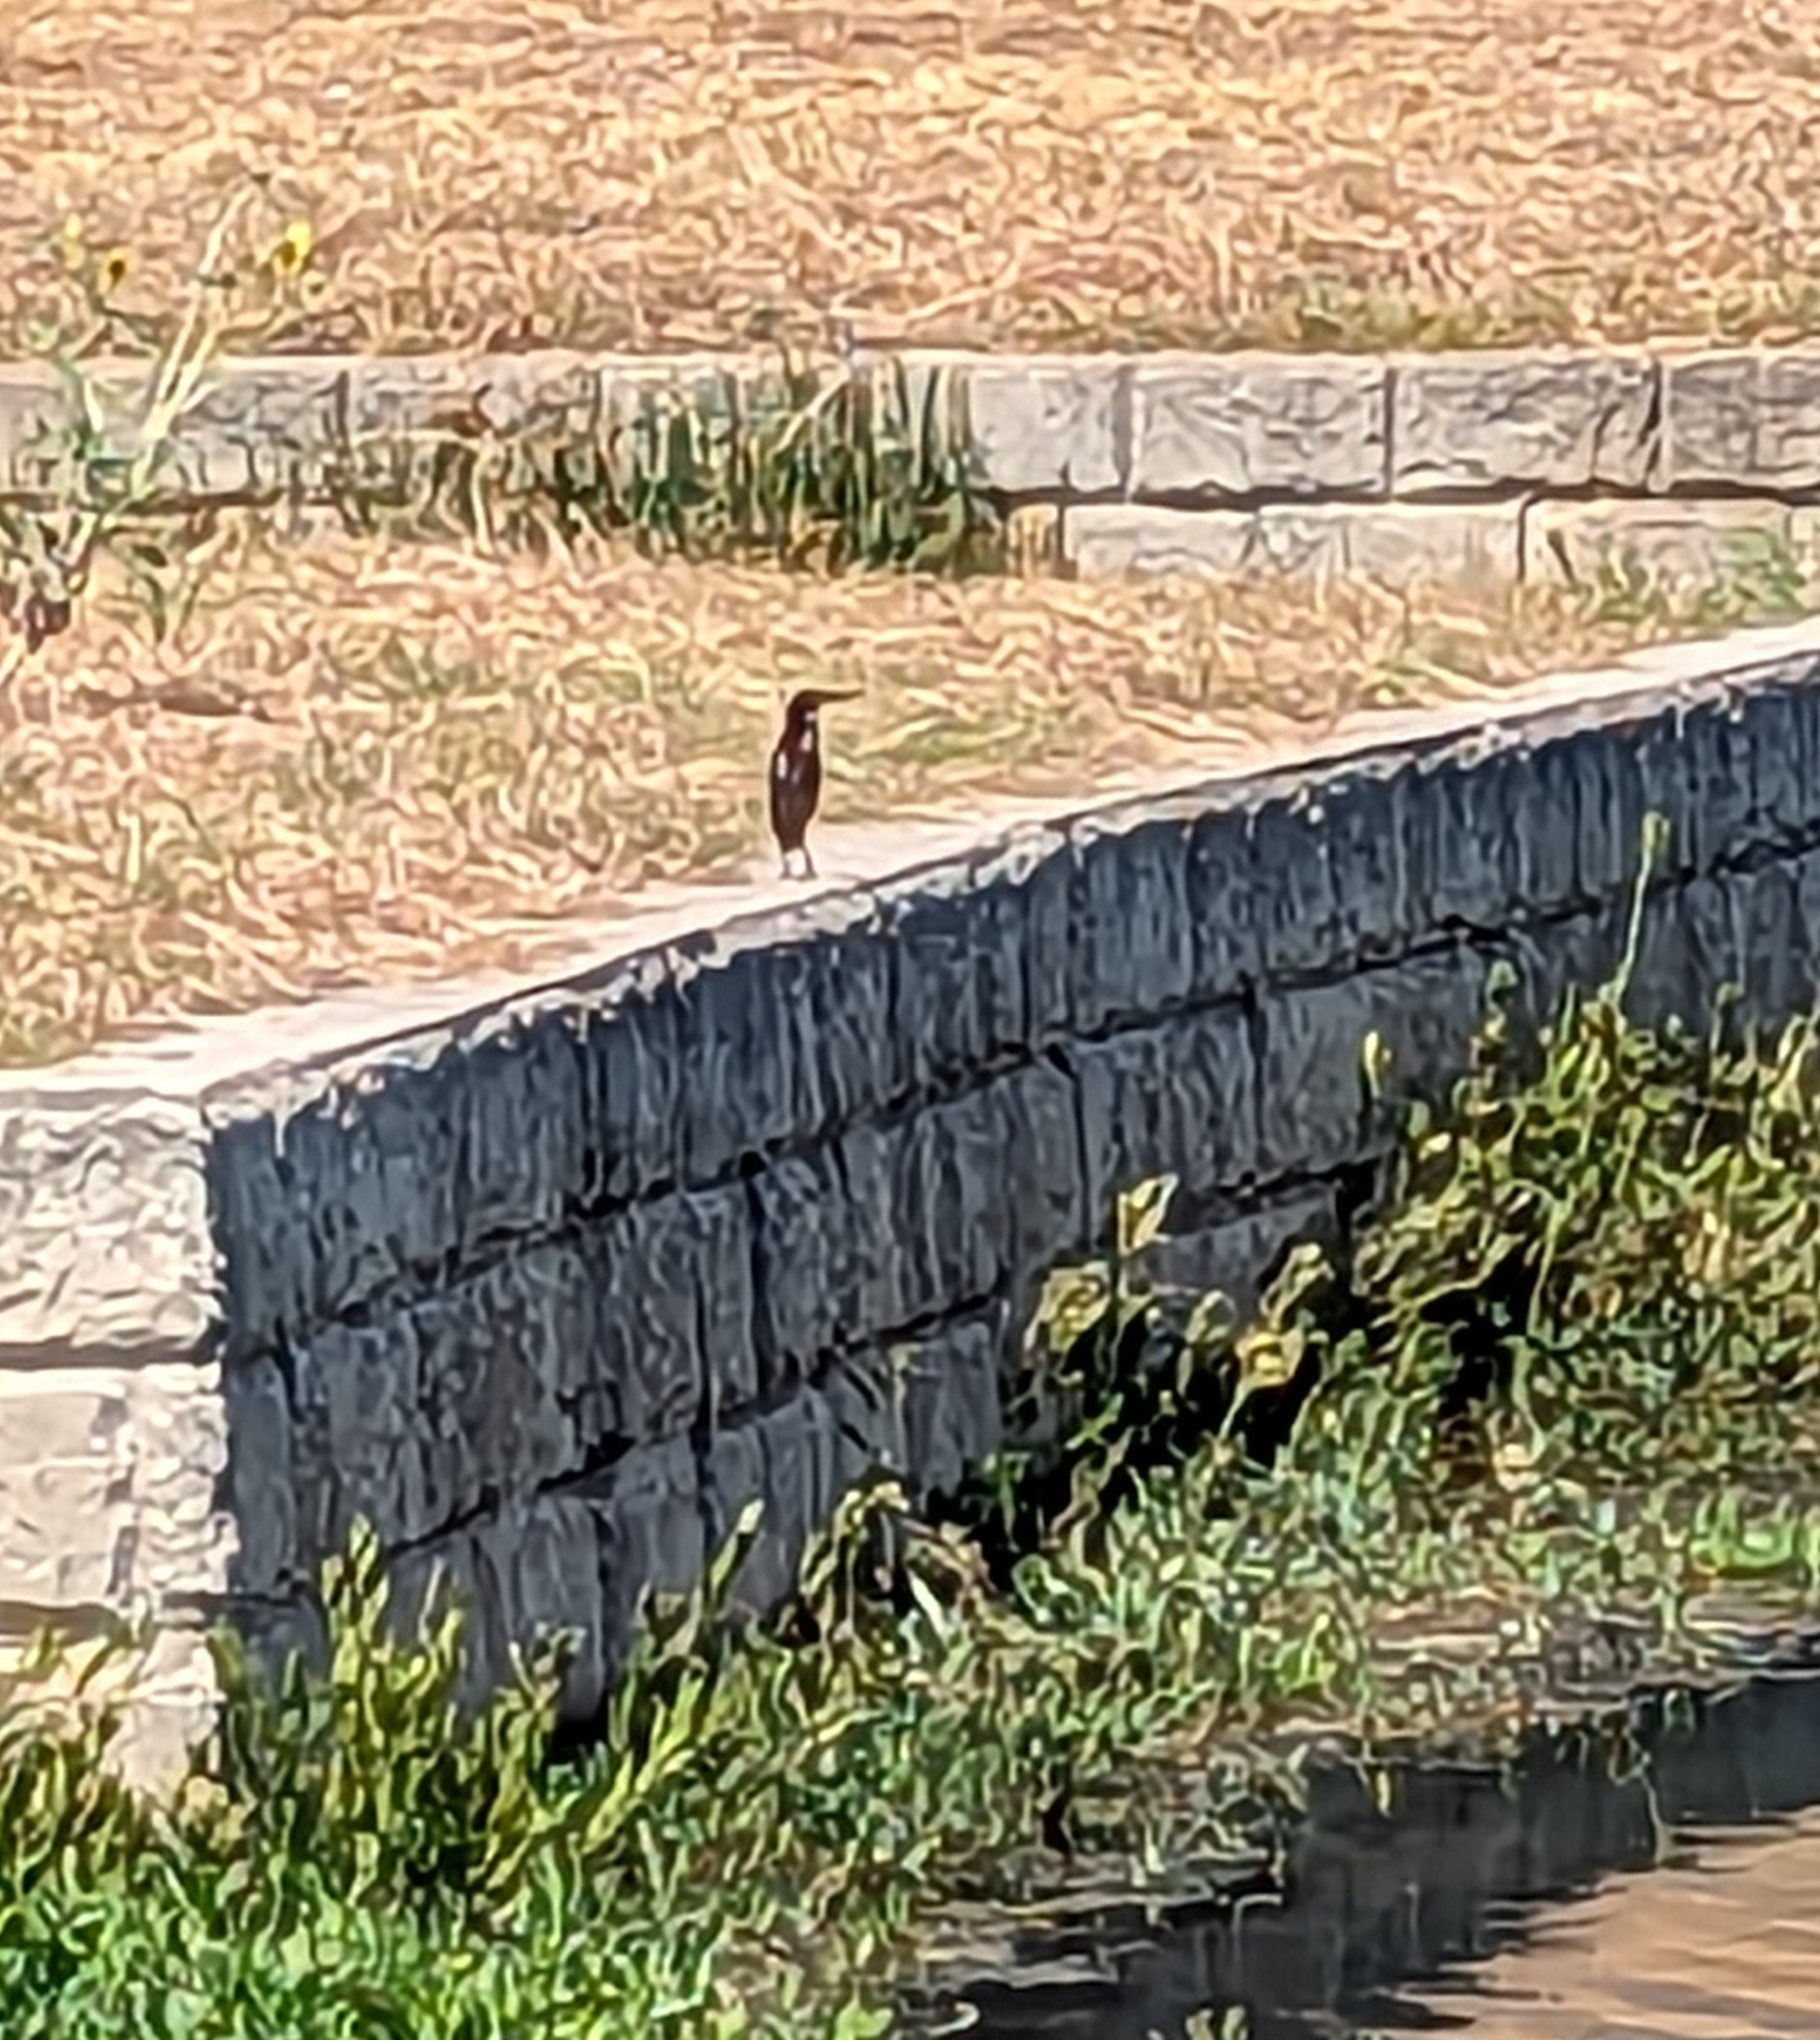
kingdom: Animalia
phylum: Chordata
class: Aves
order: Pelecaniformes
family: Ardeidae
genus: Butorides
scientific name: Butorides virescens
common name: Green heron
